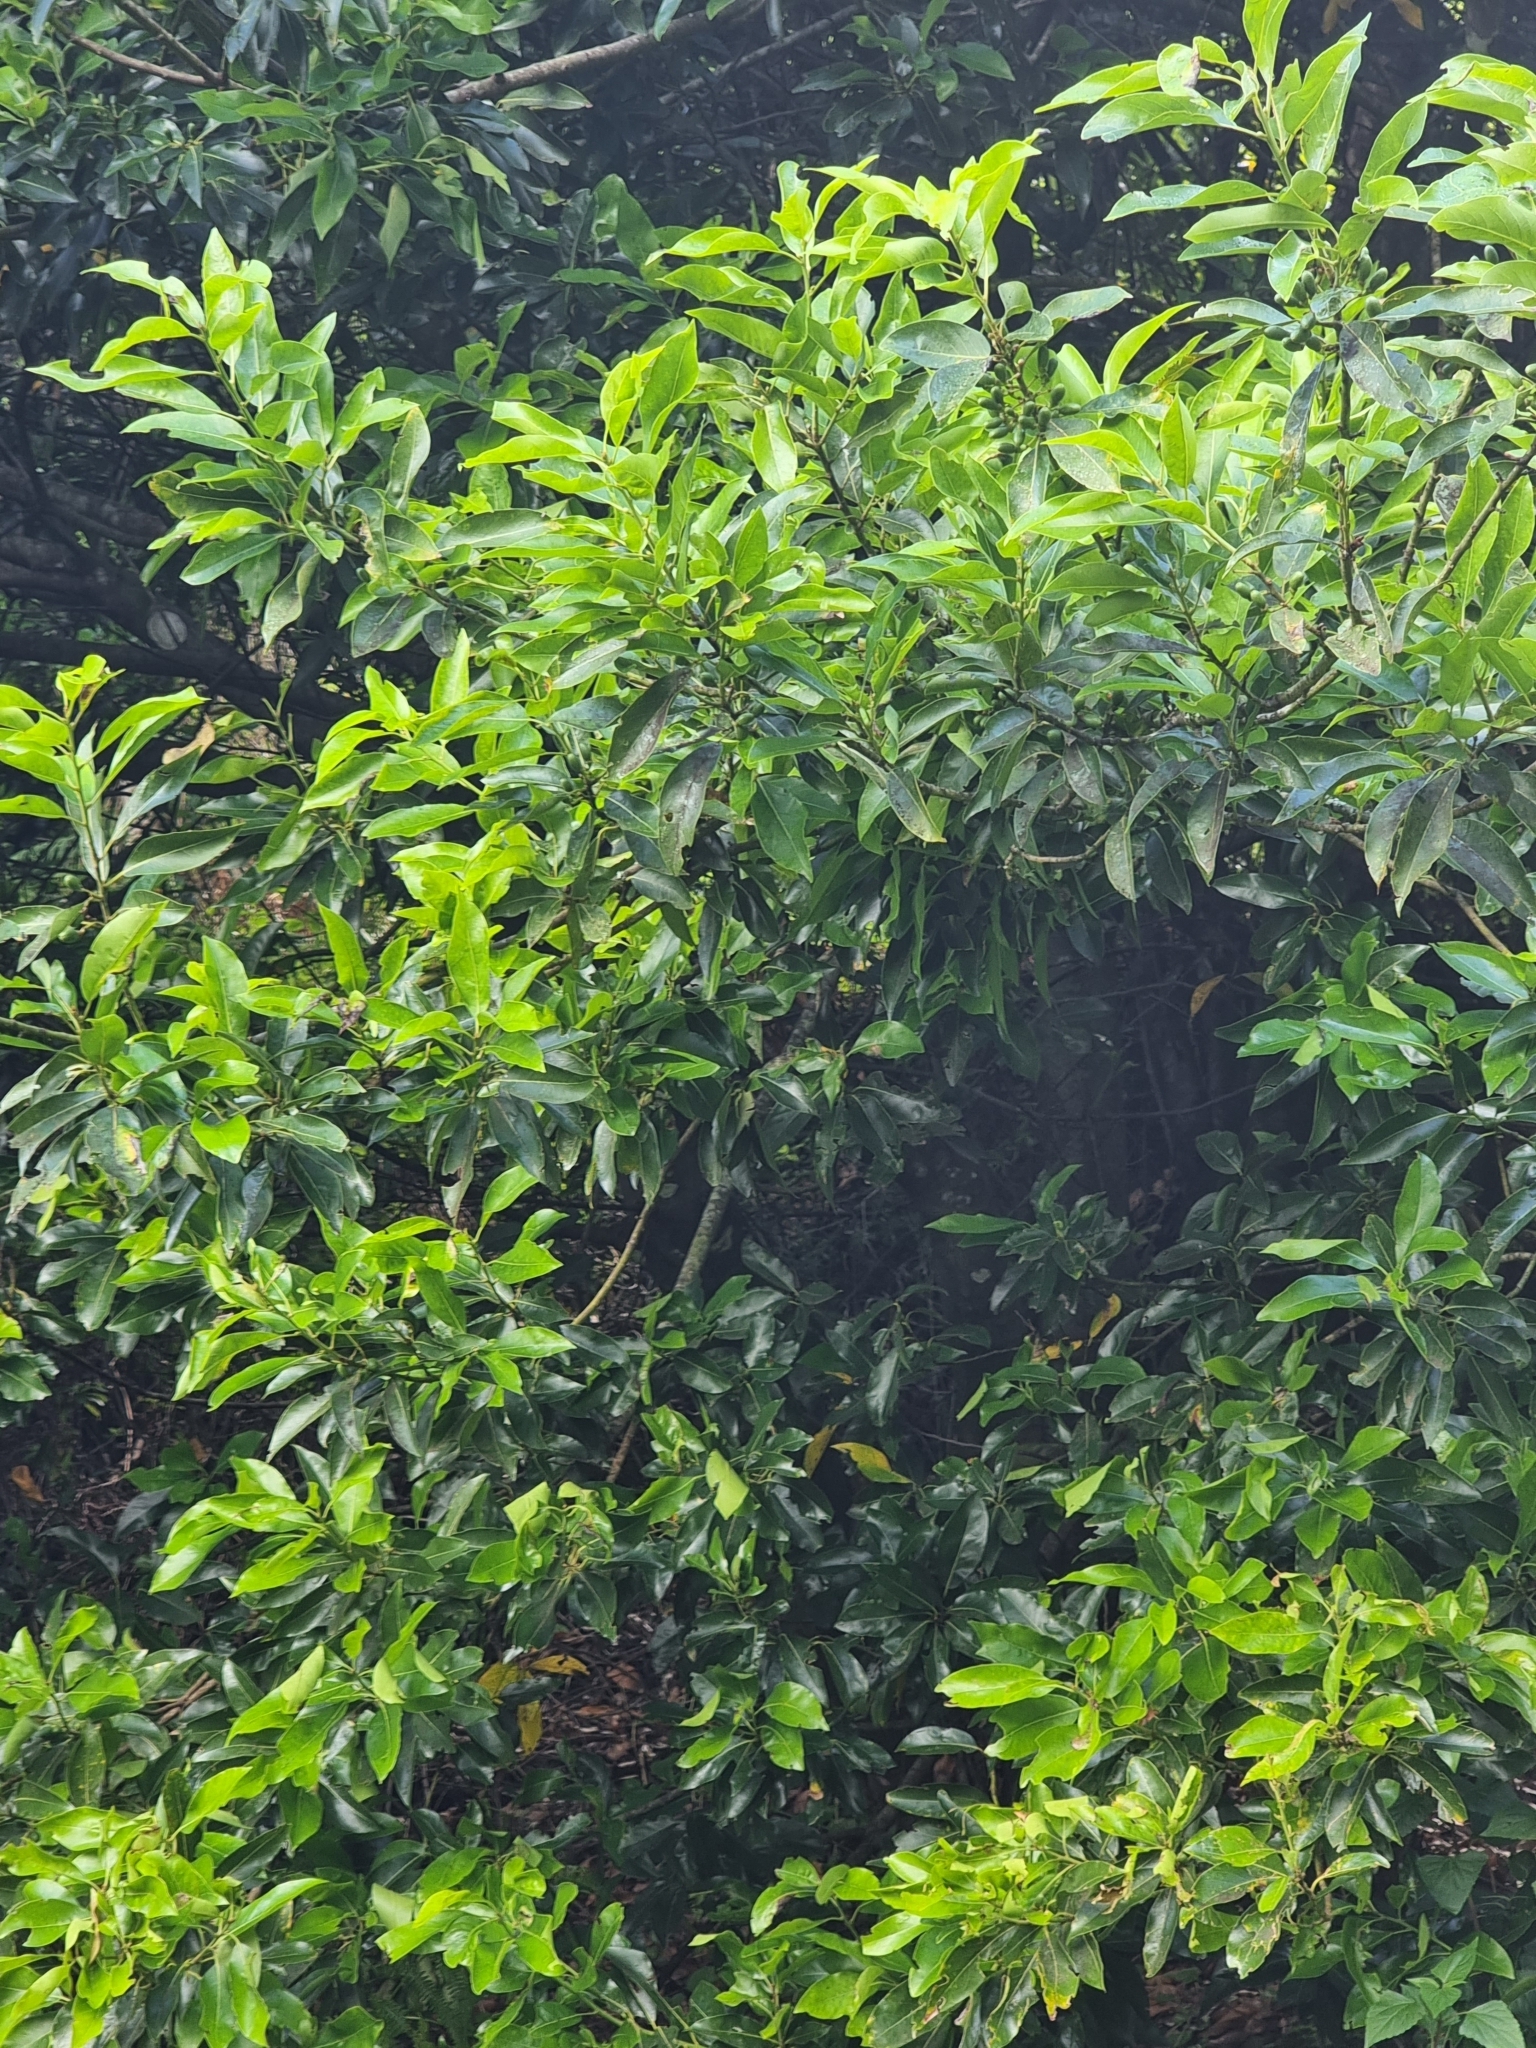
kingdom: Plantae
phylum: Tracheophyta
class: Magnoliopsida
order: Laurales
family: Lauraceae
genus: Laurus
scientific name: Laurus novocanariensis
